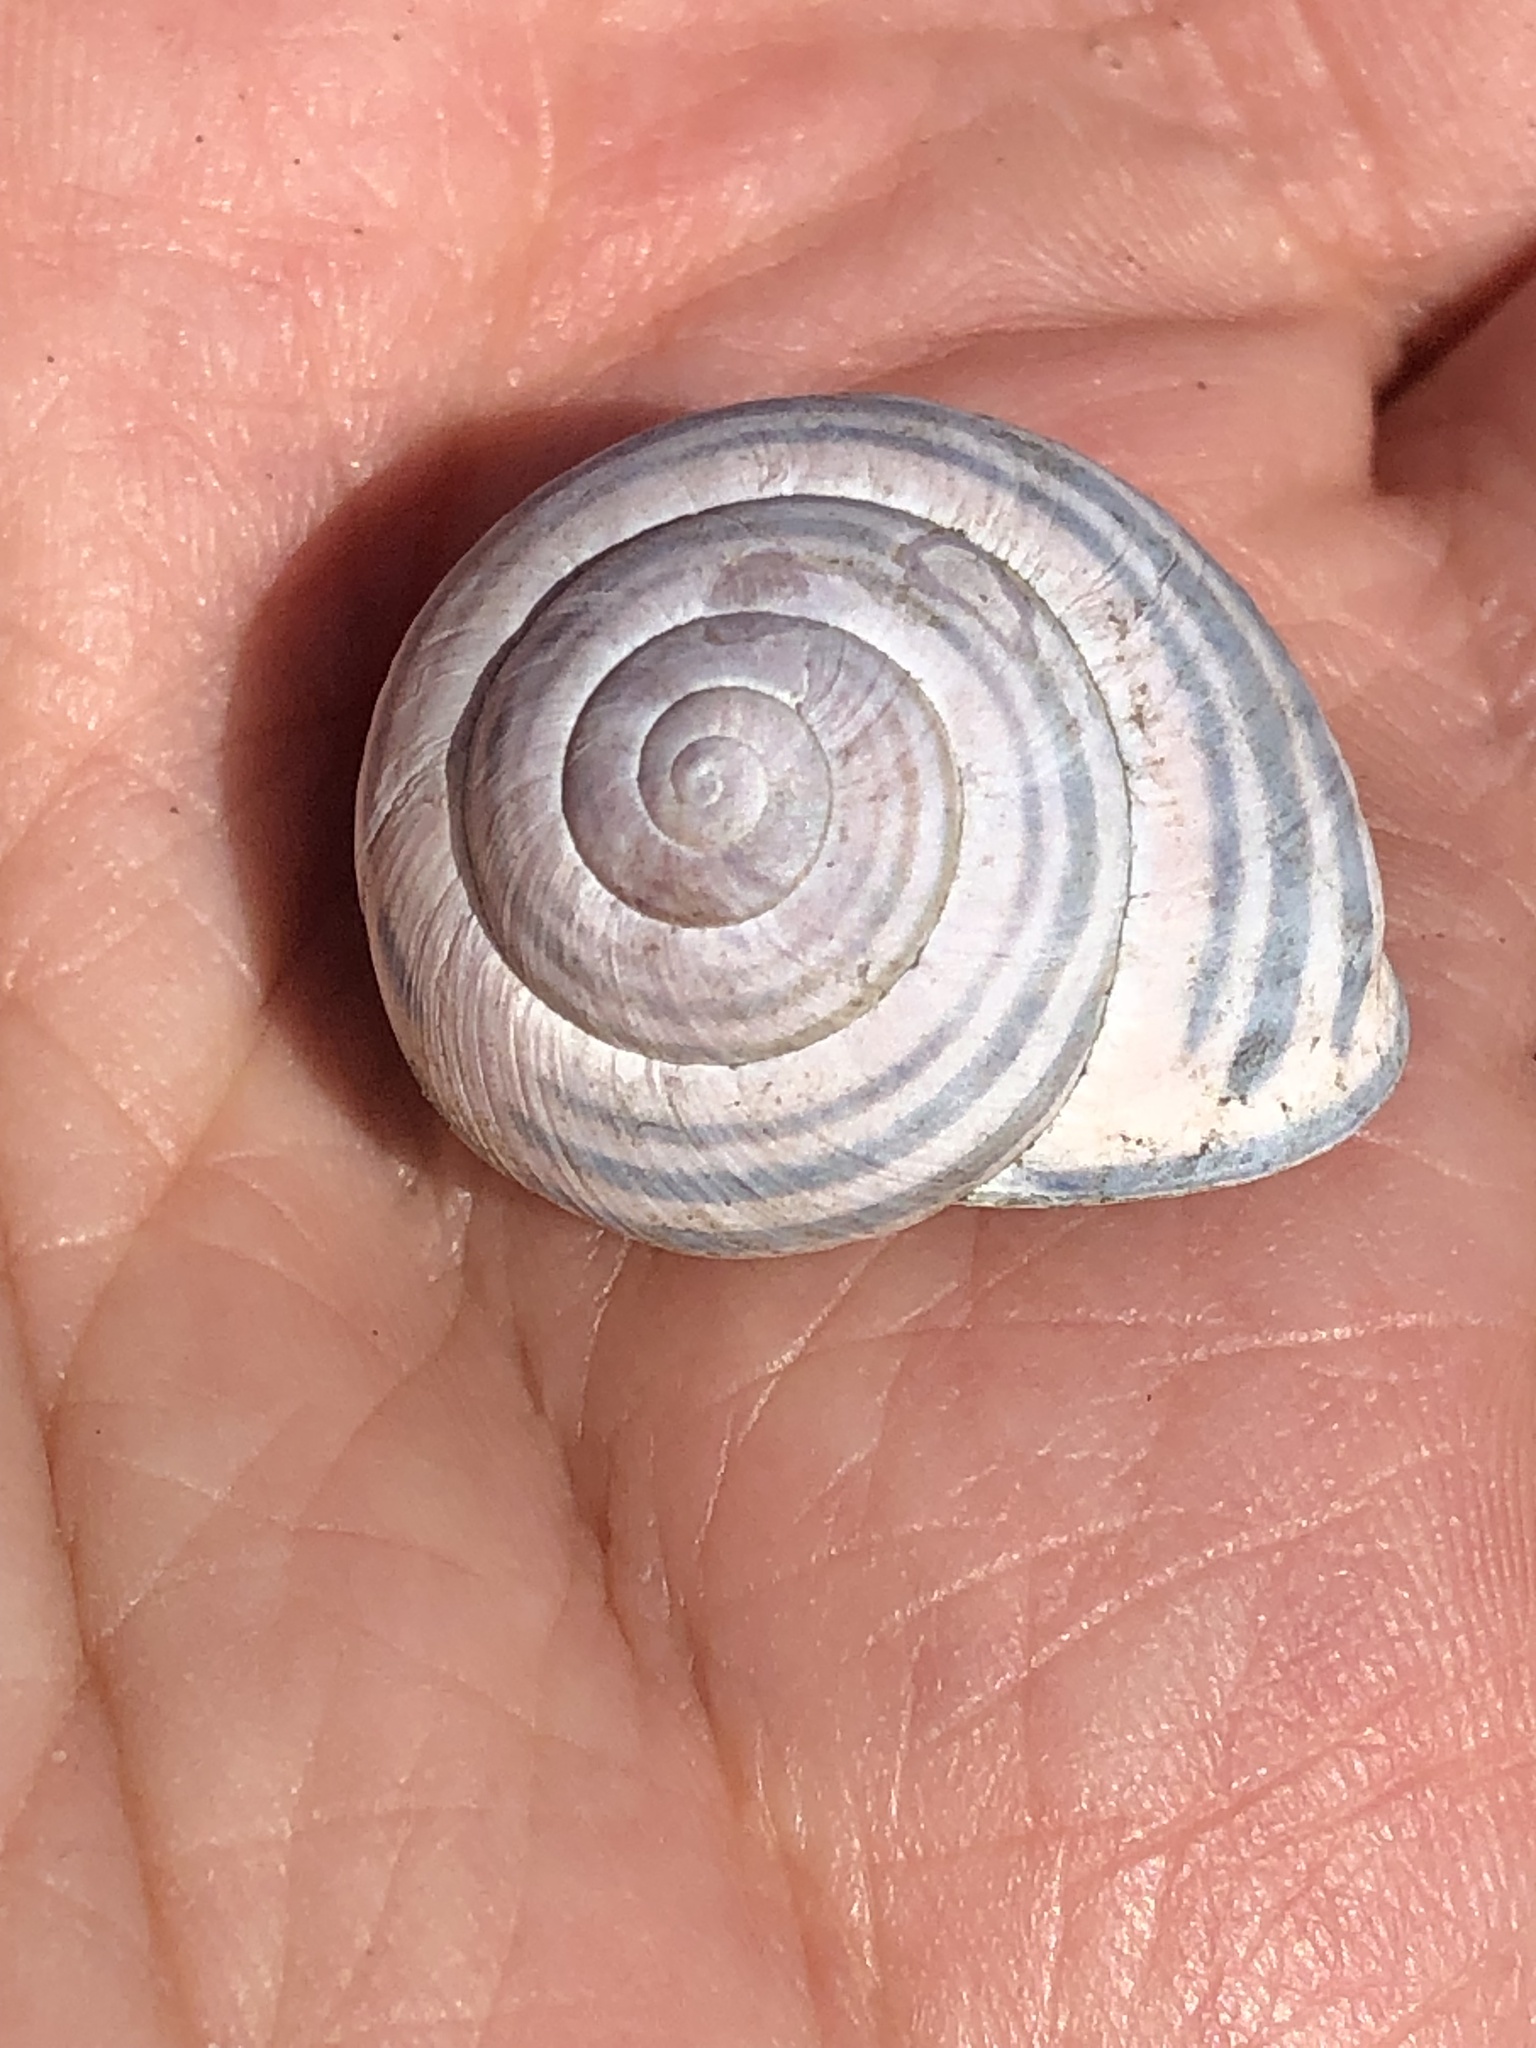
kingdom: Animalia
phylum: Mollusca
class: Gastropoda
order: Stylommatophora
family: Helicidae
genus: Cepaea
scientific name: Cepaea nemoralis
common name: Grovesnail
